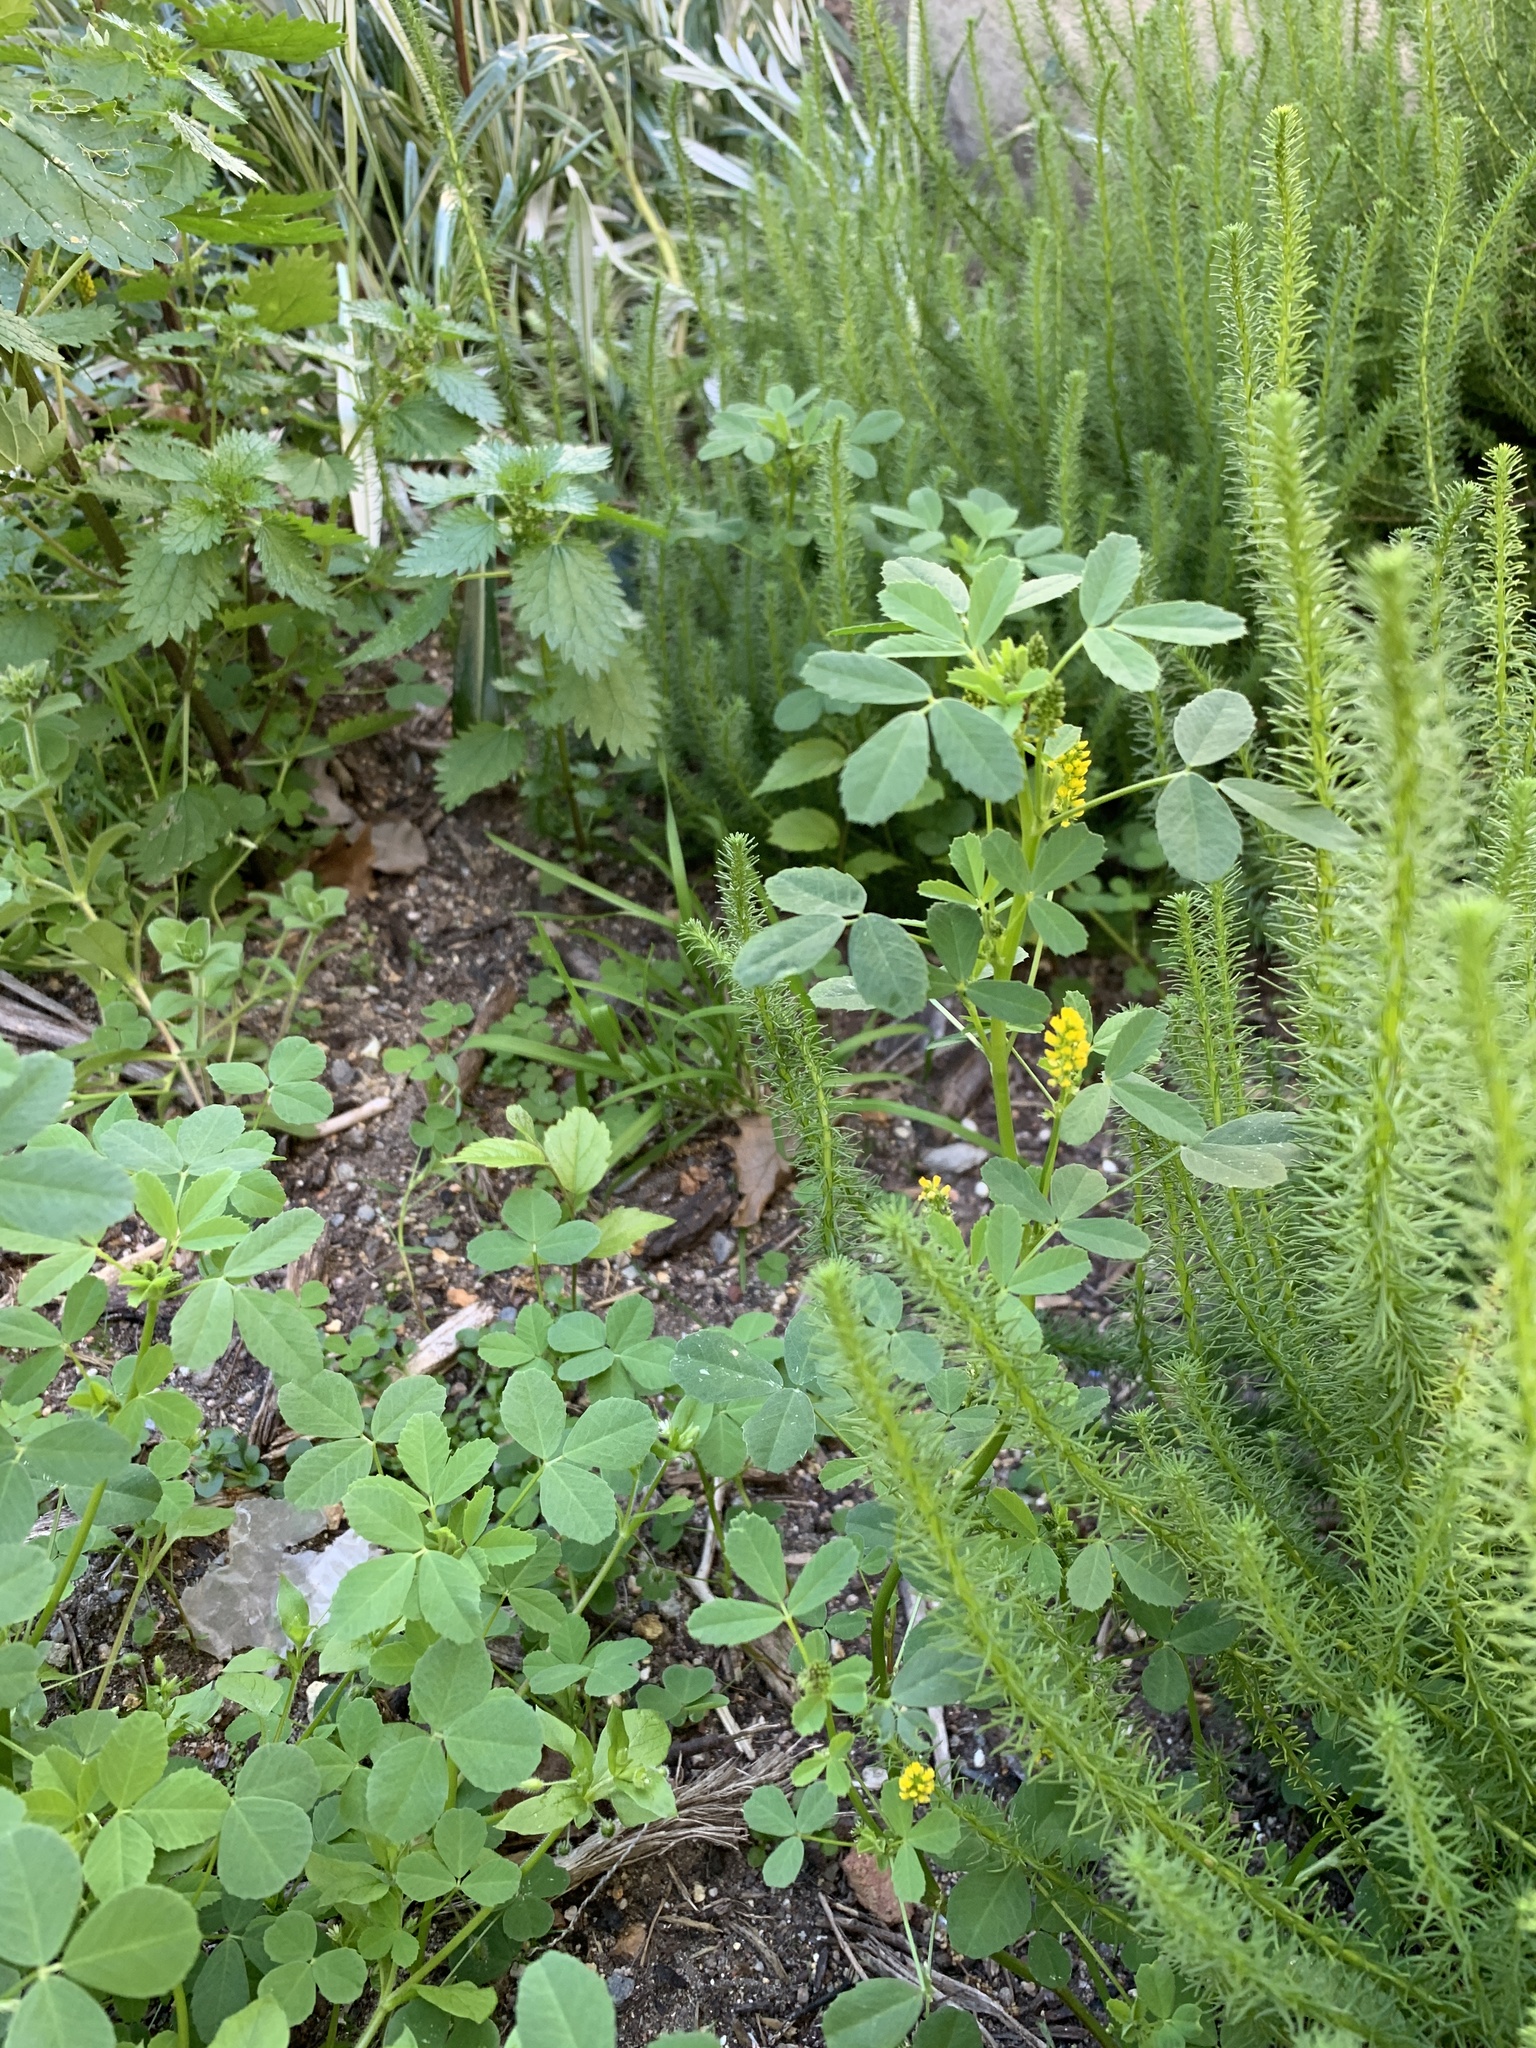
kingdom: Plantae
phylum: Tracheophyta
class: Magnoliopsida
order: Fabales
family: Fabaceae
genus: Melilotus
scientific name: Melilotus indicus
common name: Small melilot
